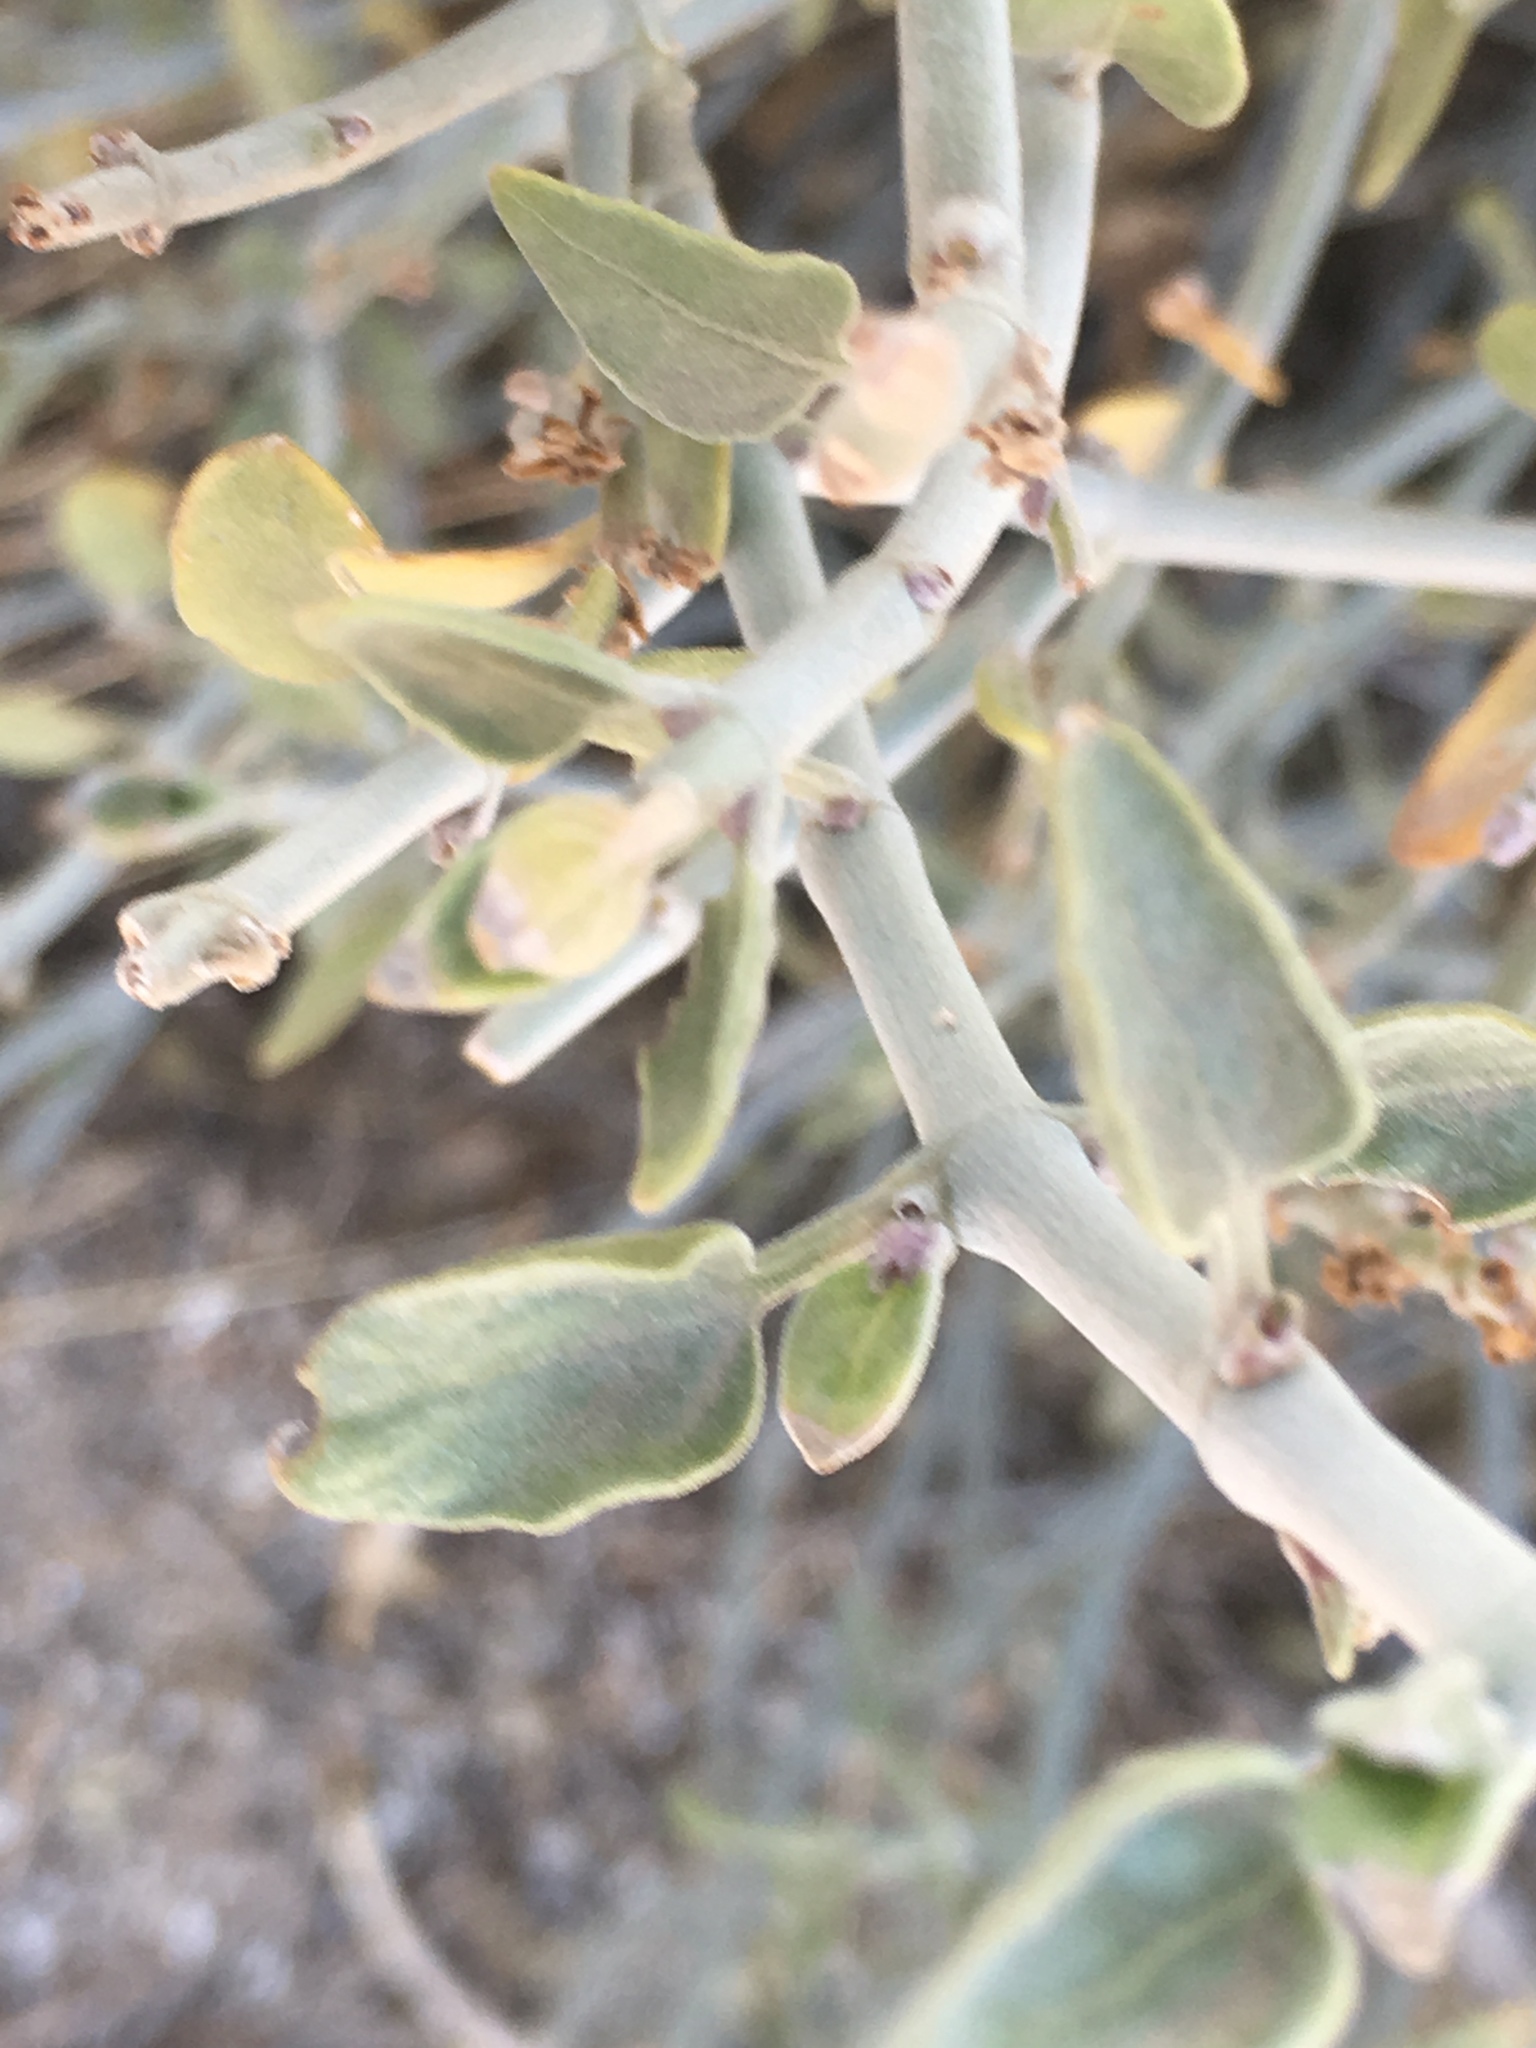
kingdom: Plantae
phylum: Tracheophyta
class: Magnoliopsida
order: Lamiales
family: Acanthaceae
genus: Justicia
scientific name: Justicia californica
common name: Chuparosa-honeysuckle
